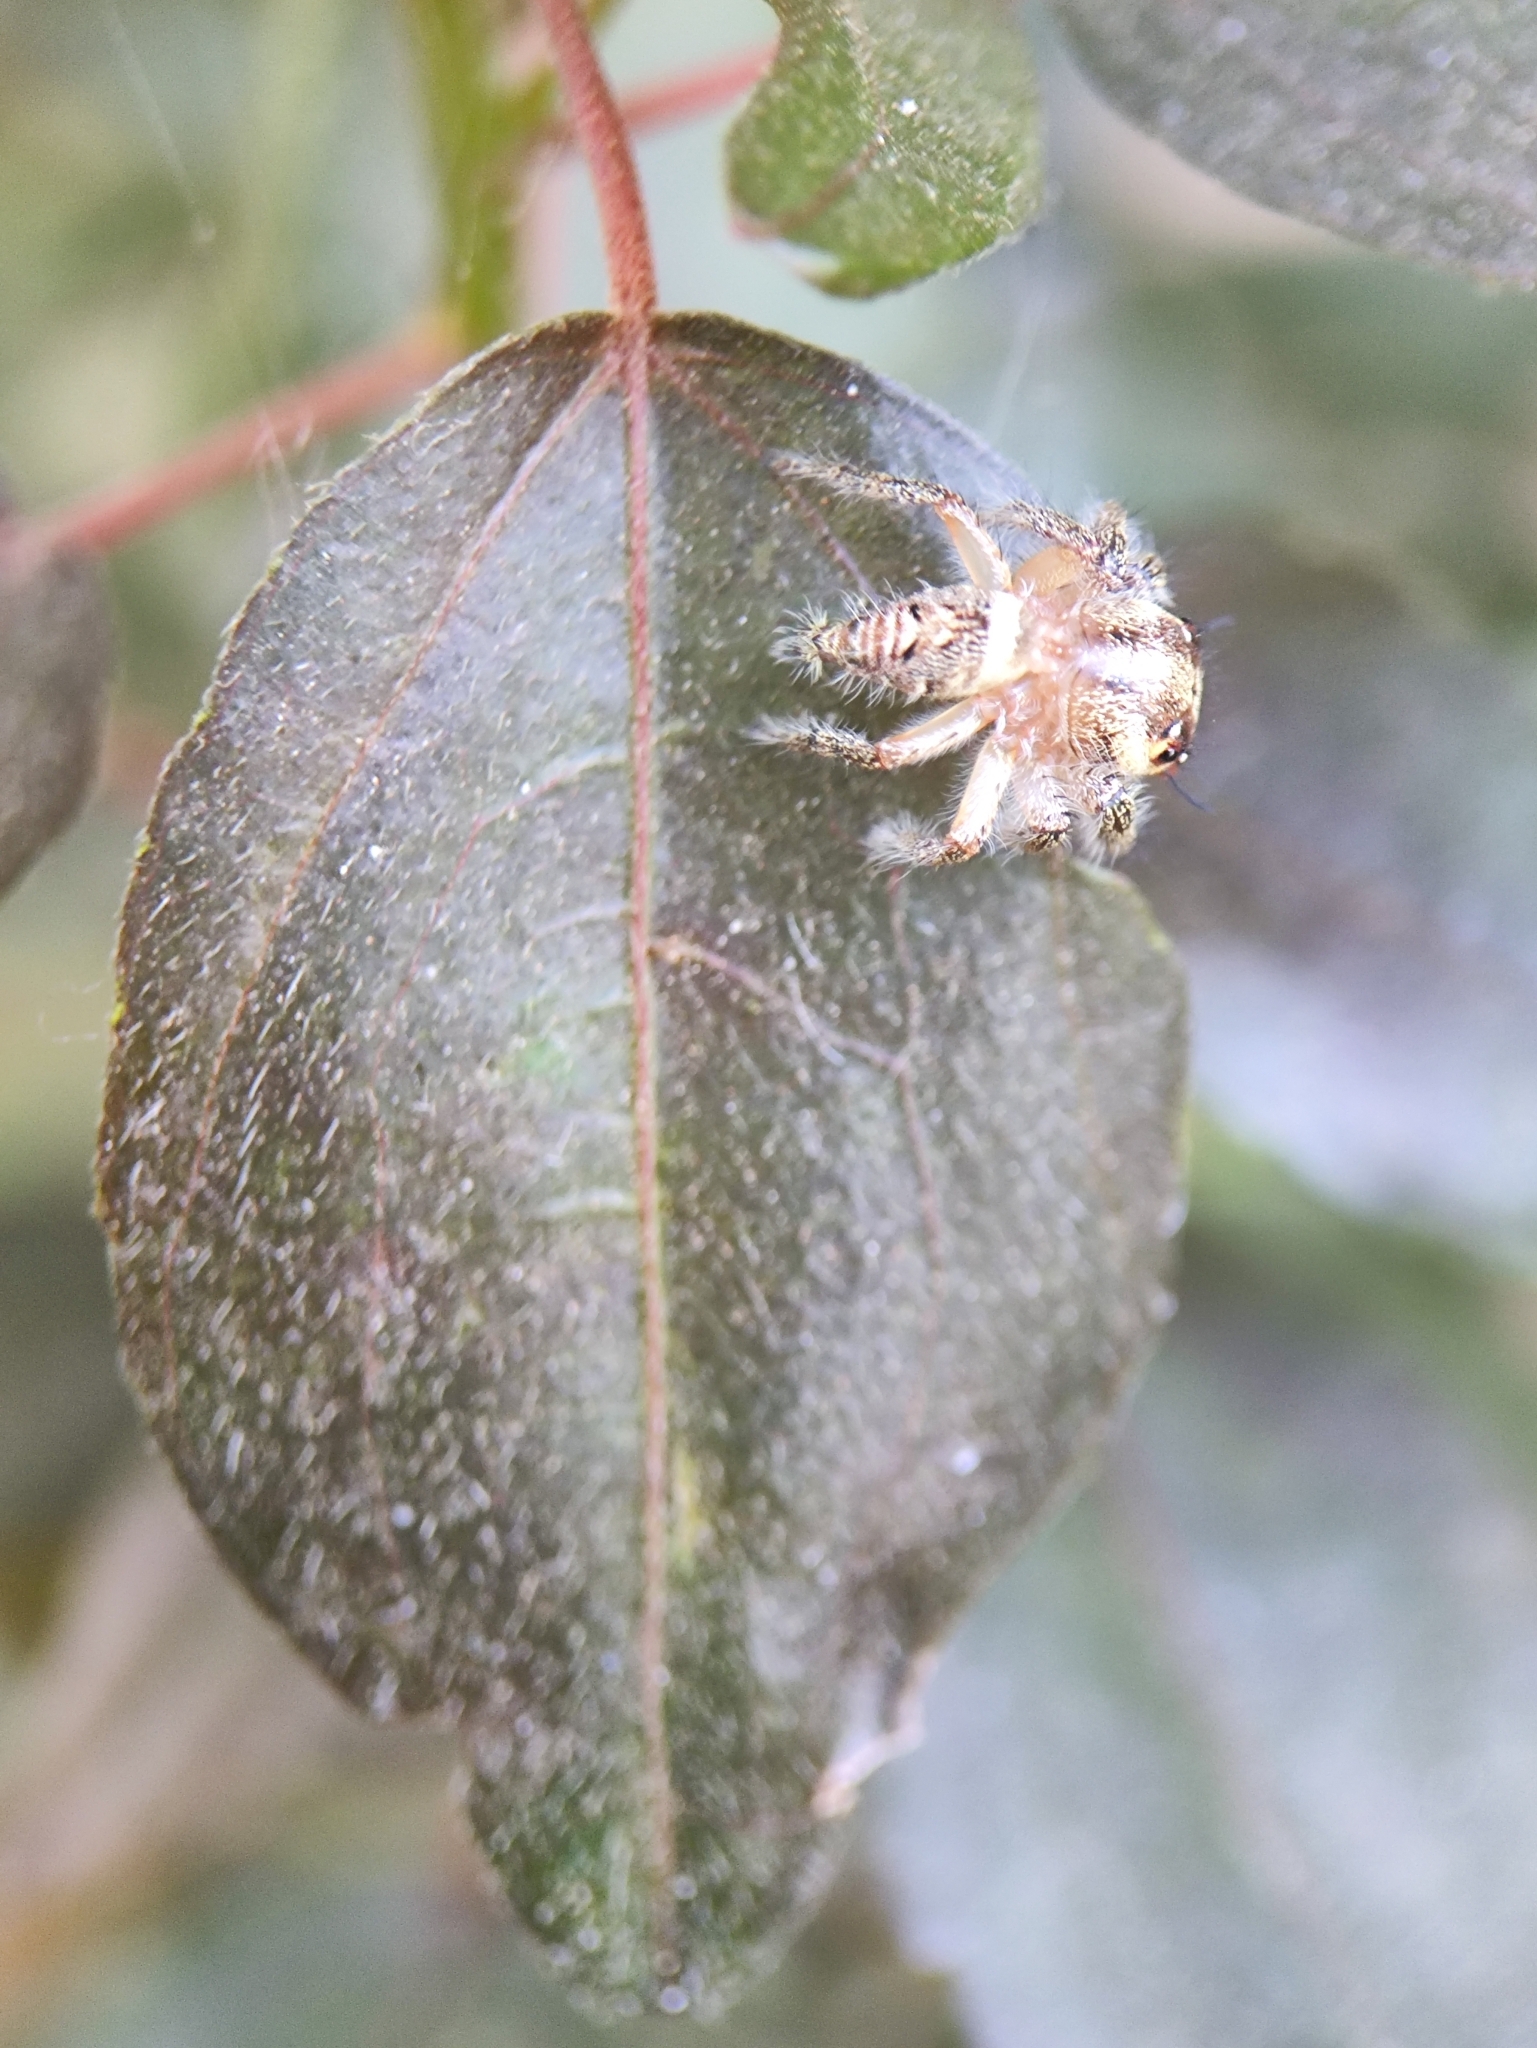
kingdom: Animalia
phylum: Arthropoda
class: Arachnida
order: Araneae
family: Salticidae
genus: Hyllus
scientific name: Hyllus semicupreus
